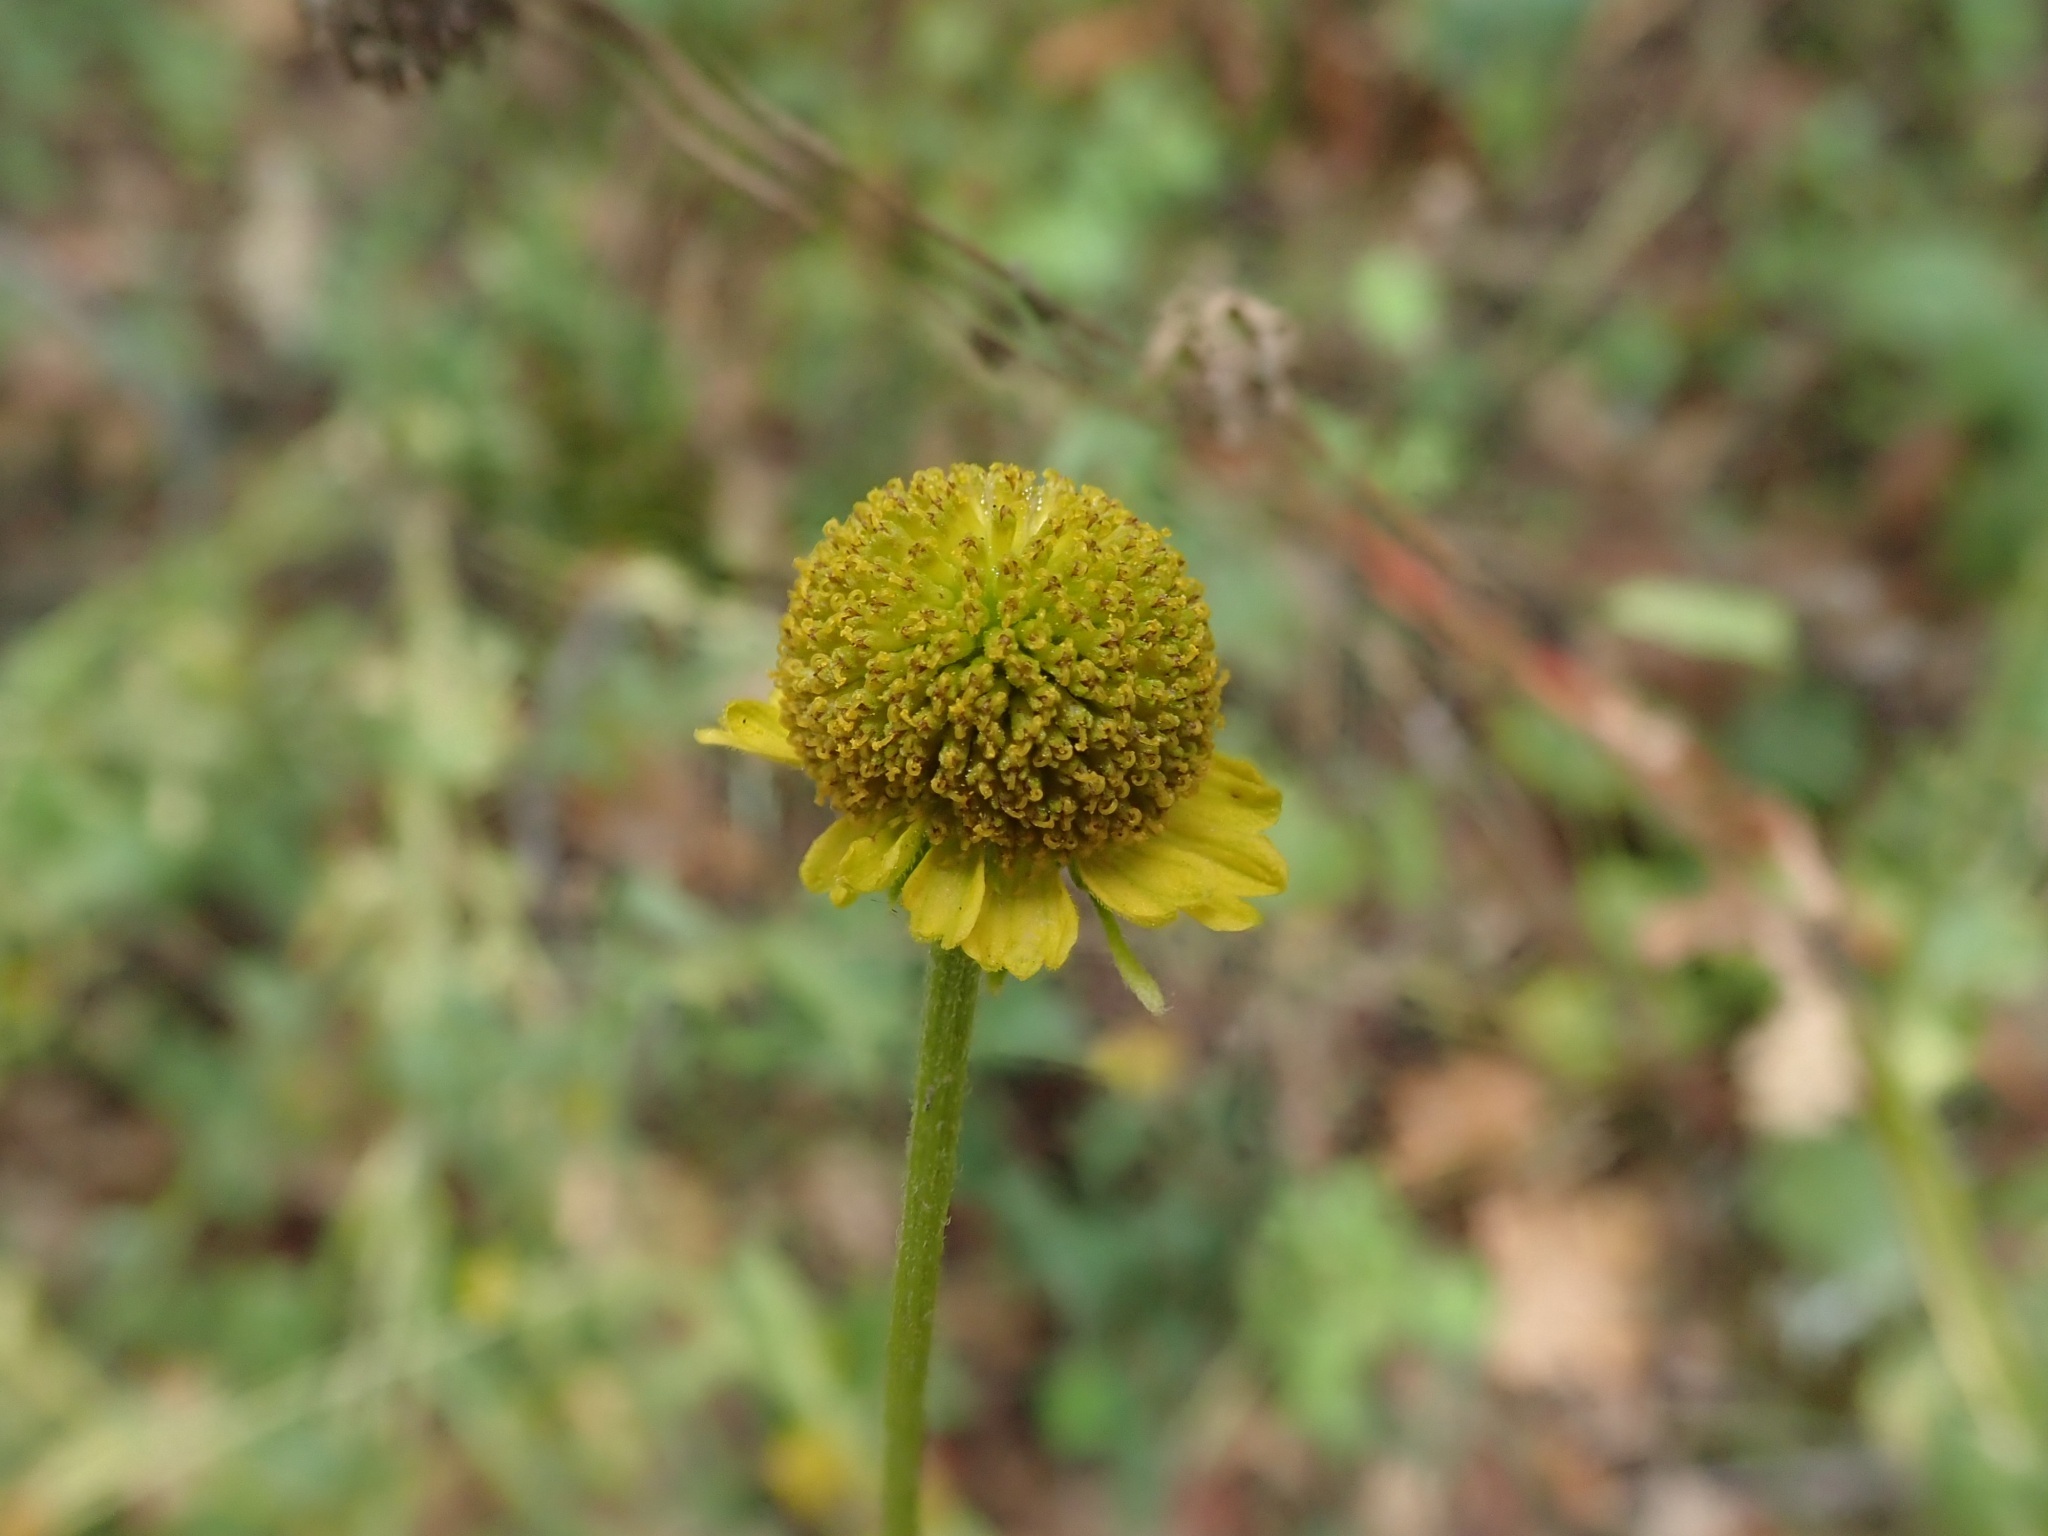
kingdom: Plantae
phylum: Tracheophyta
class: Magnoliopsida
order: Asterales
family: Asteraceae
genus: Helenium
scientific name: Helenium puberulum
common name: Sneezewort
